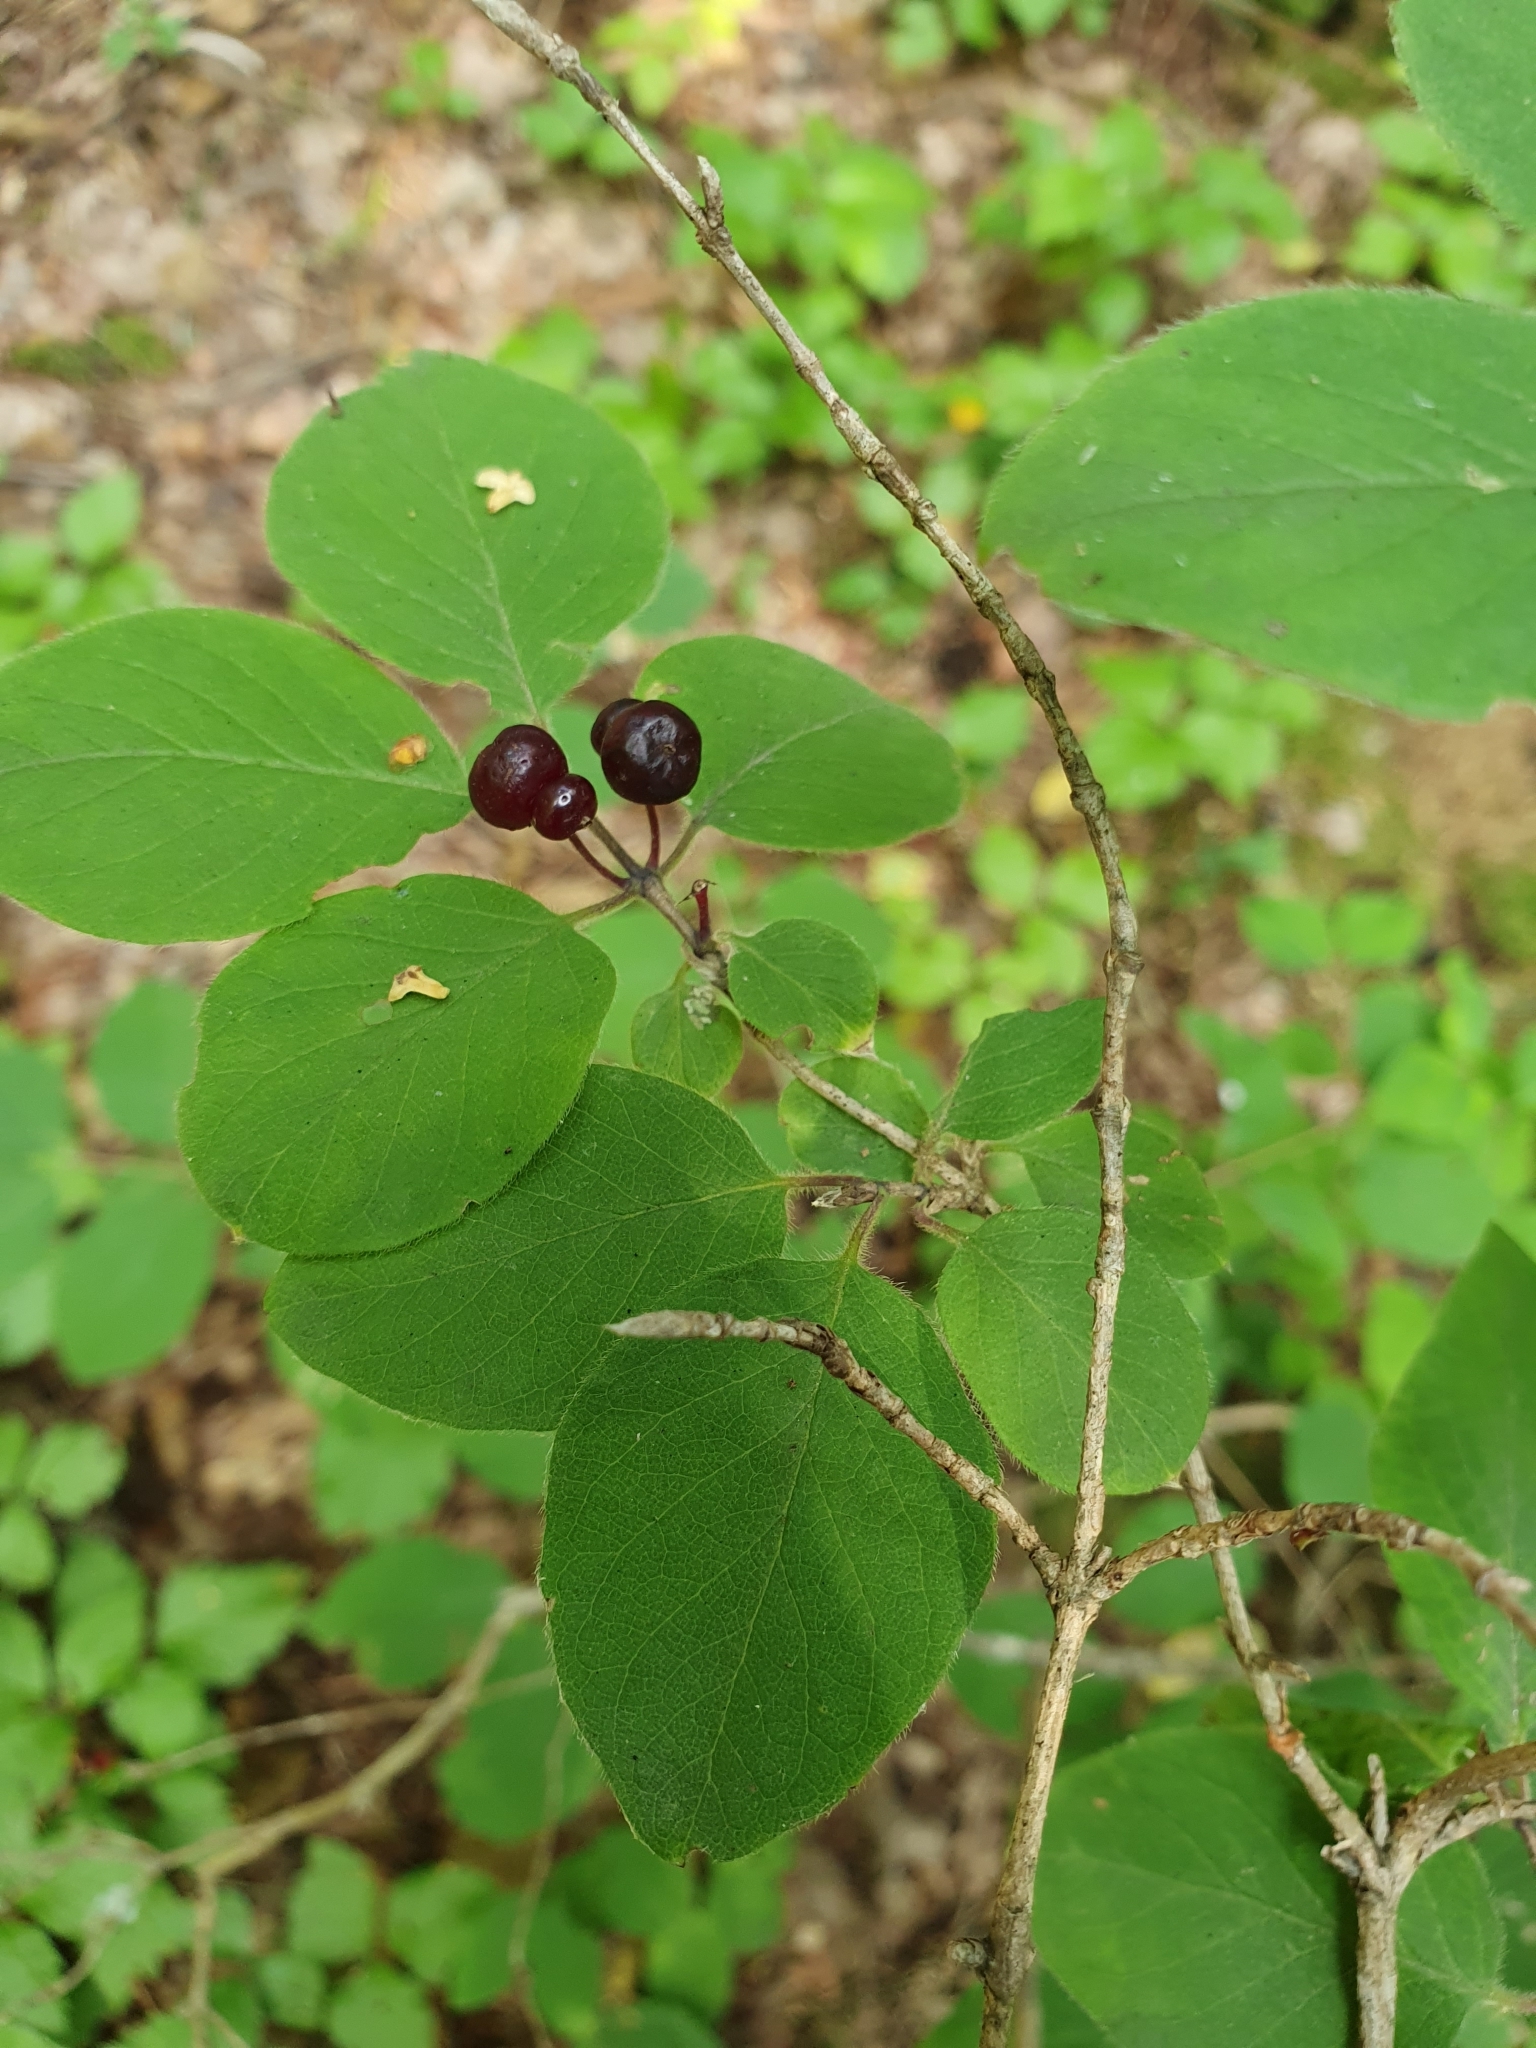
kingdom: Plantae
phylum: Tracheophyta
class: Magnoliopsida
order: Dipsacales
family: Caprifoliaceae
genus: Lonicera
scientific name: Lonicera xylosteum
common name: Fly honeysuckle
